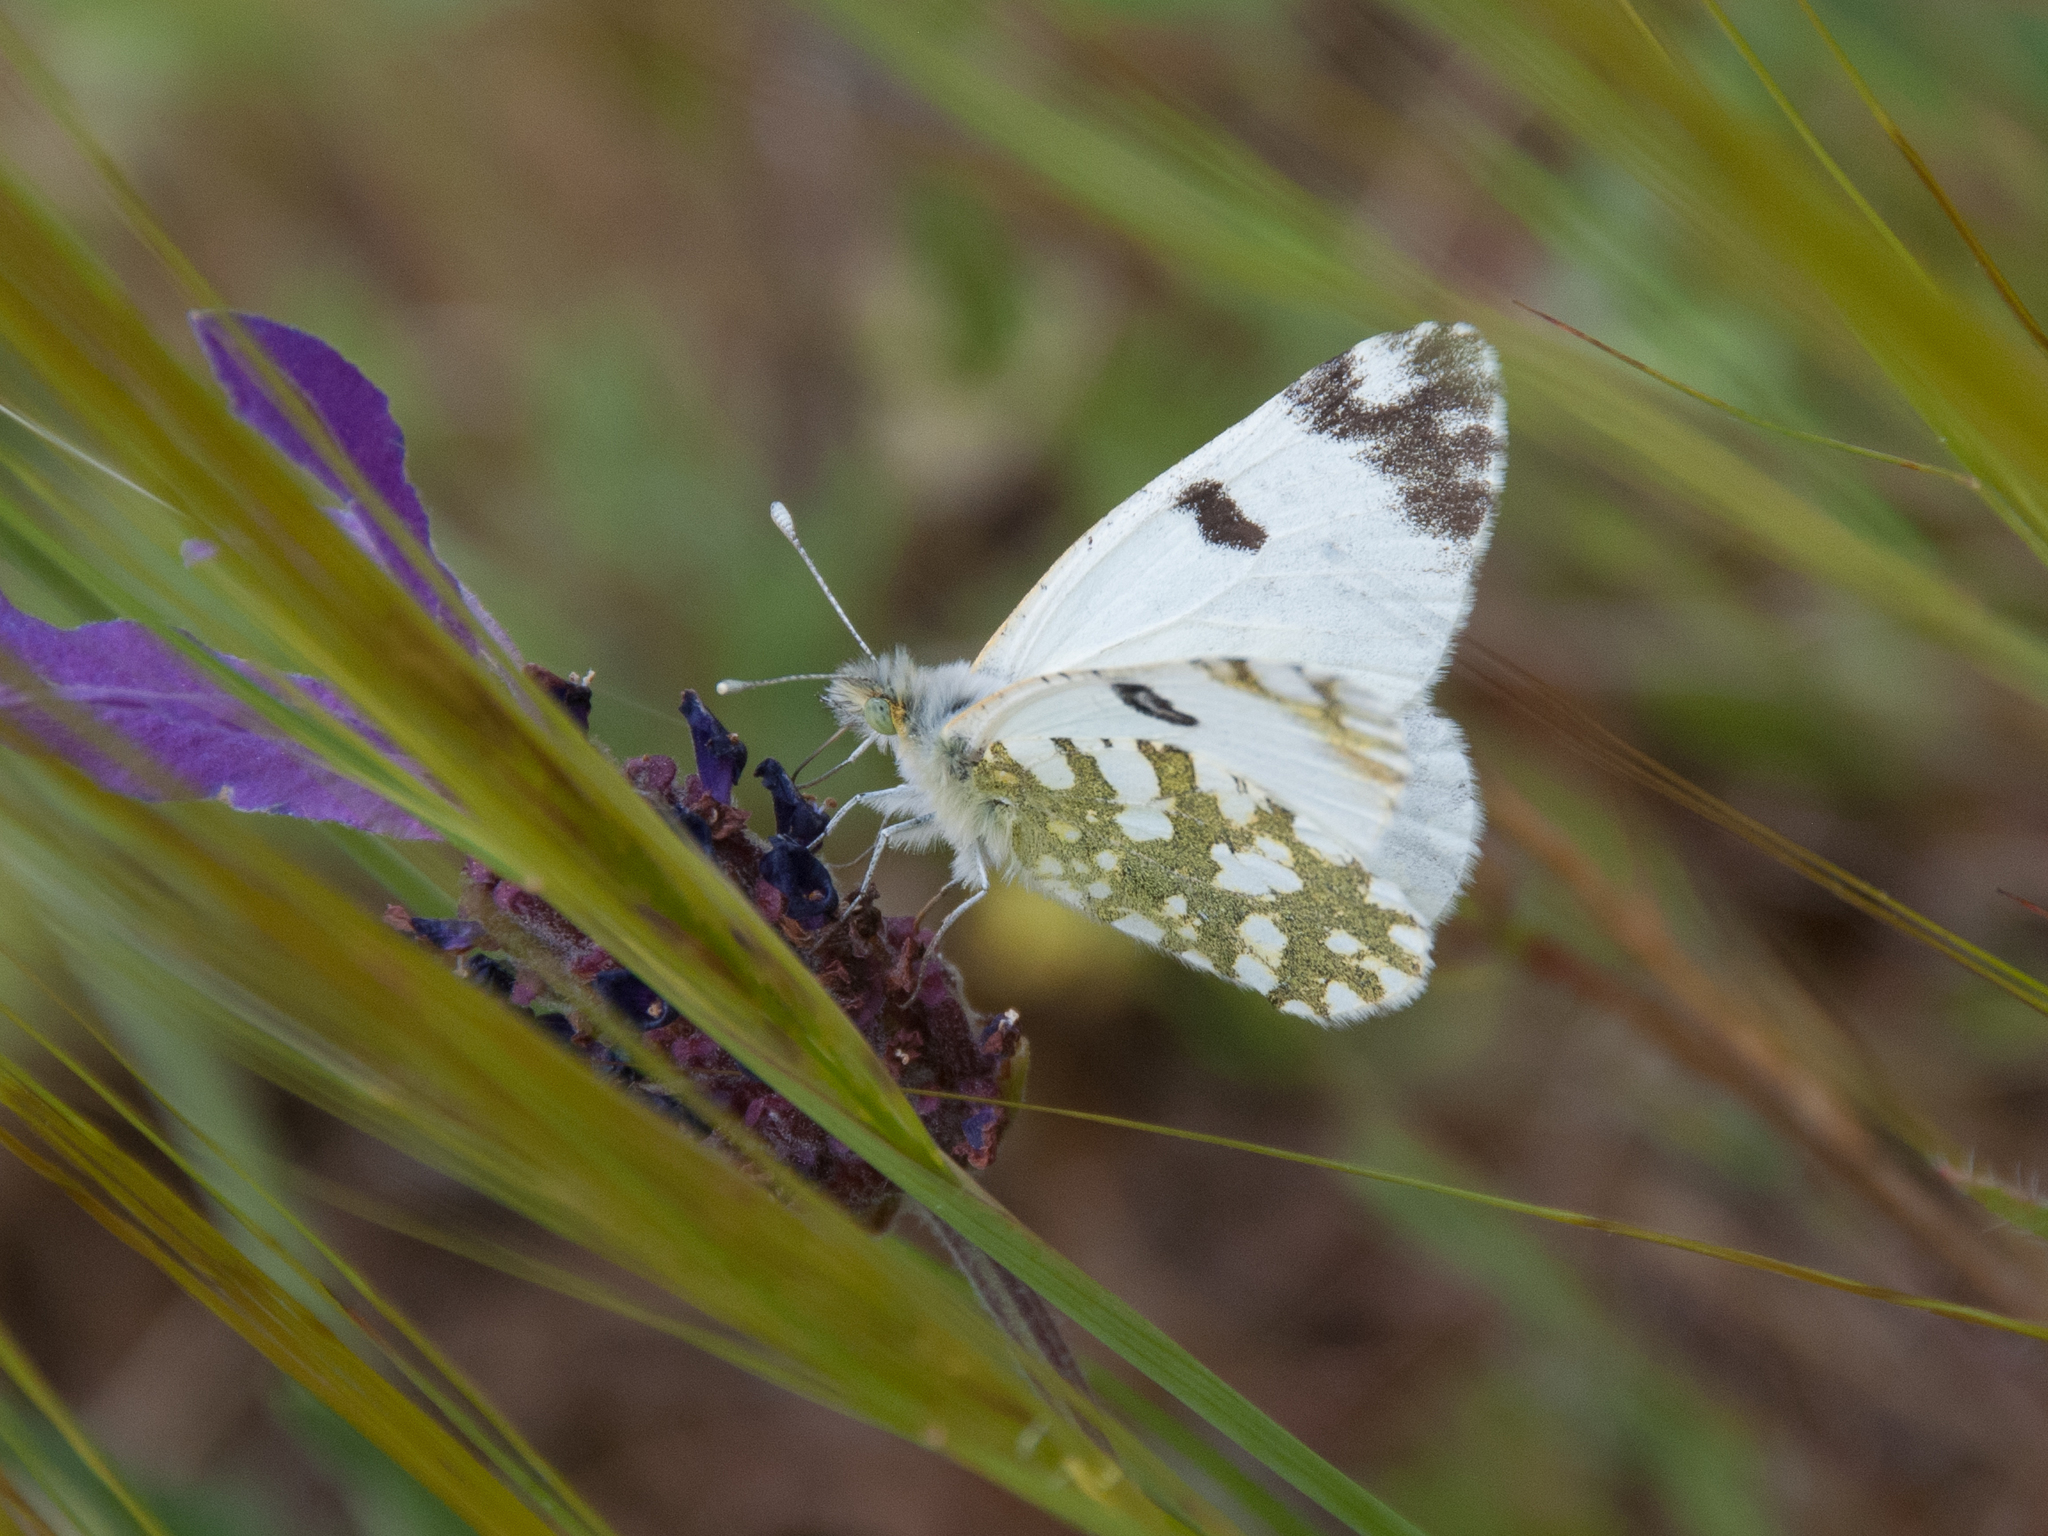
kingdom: Animalia
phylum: Arthropoda
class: Insecta
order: Lepidoptera
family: Pieridae
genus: Euchloe
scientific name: Euchloe crameri
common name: Western dappled white
